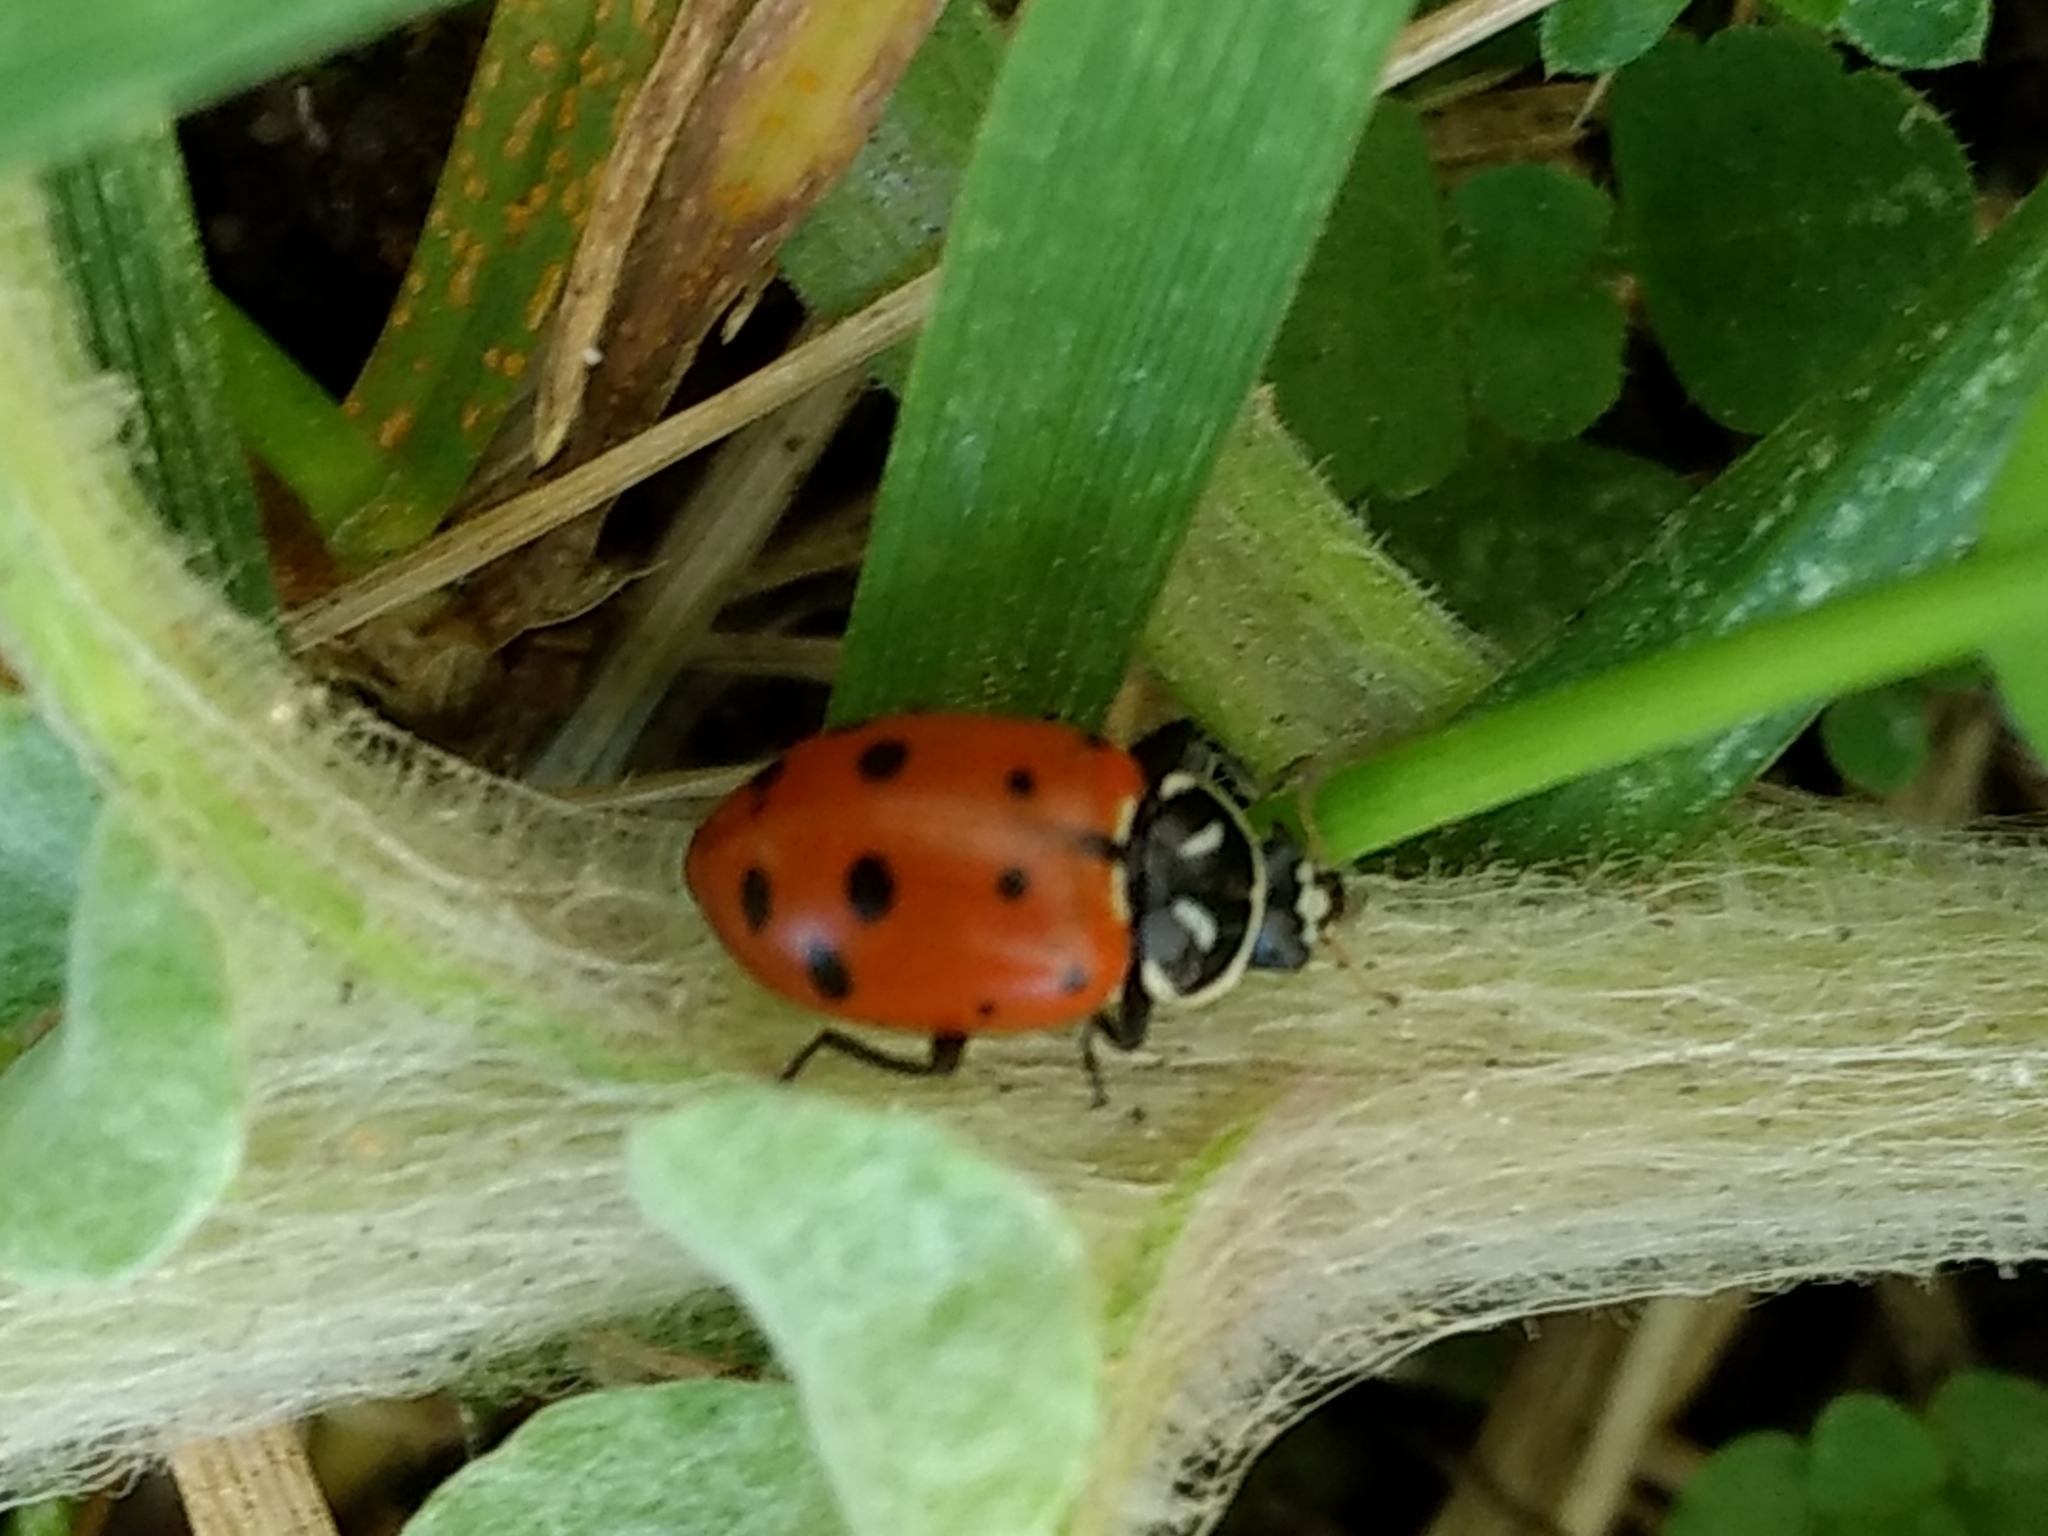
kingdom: Animalia
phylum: Arthropoda
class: Insecta
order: Coleoptera
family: Coccinellidae
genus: Hippodamia
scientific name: Hippodamia convergens
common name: Convergent lady beetle
